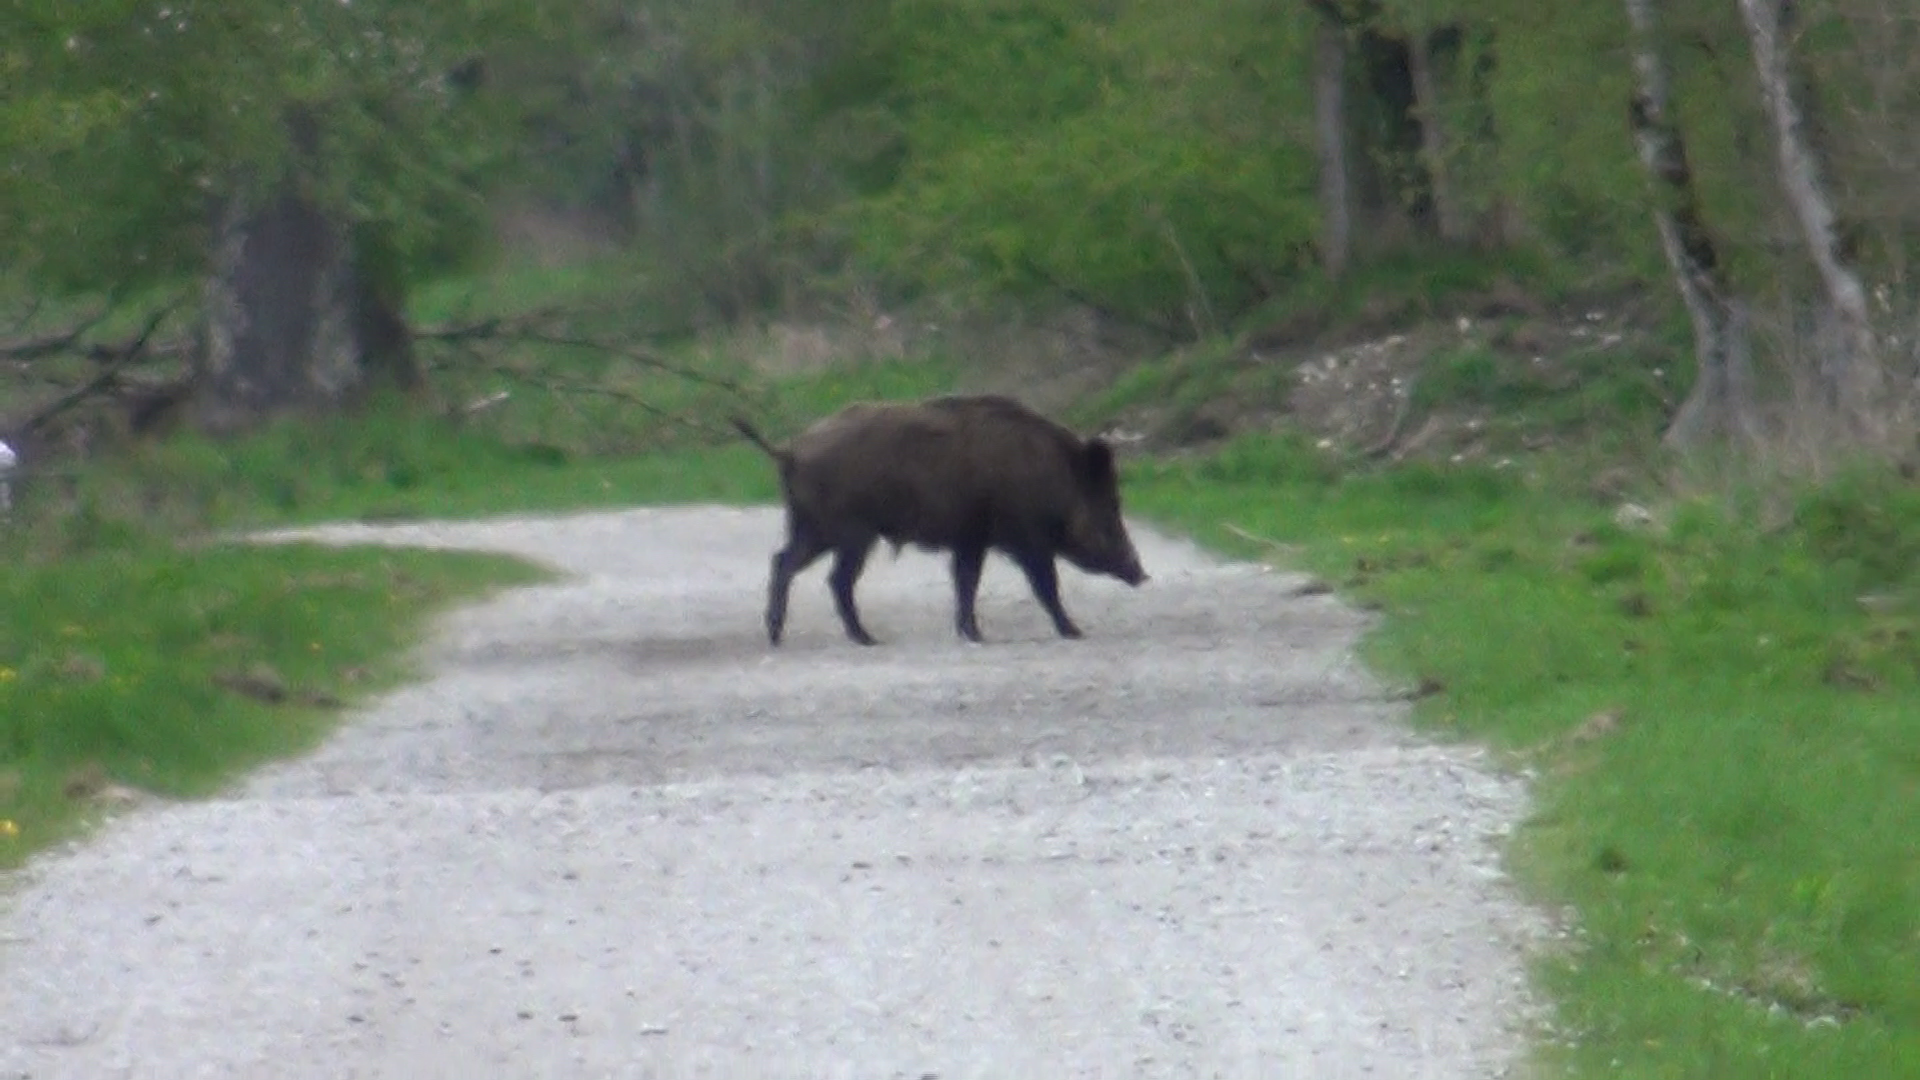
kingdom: Animalia
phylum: Chordata
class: Mammalia
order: Artiodactyla
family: Suidae
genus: Sus
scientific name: Sus scrofa
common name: Wild boar
